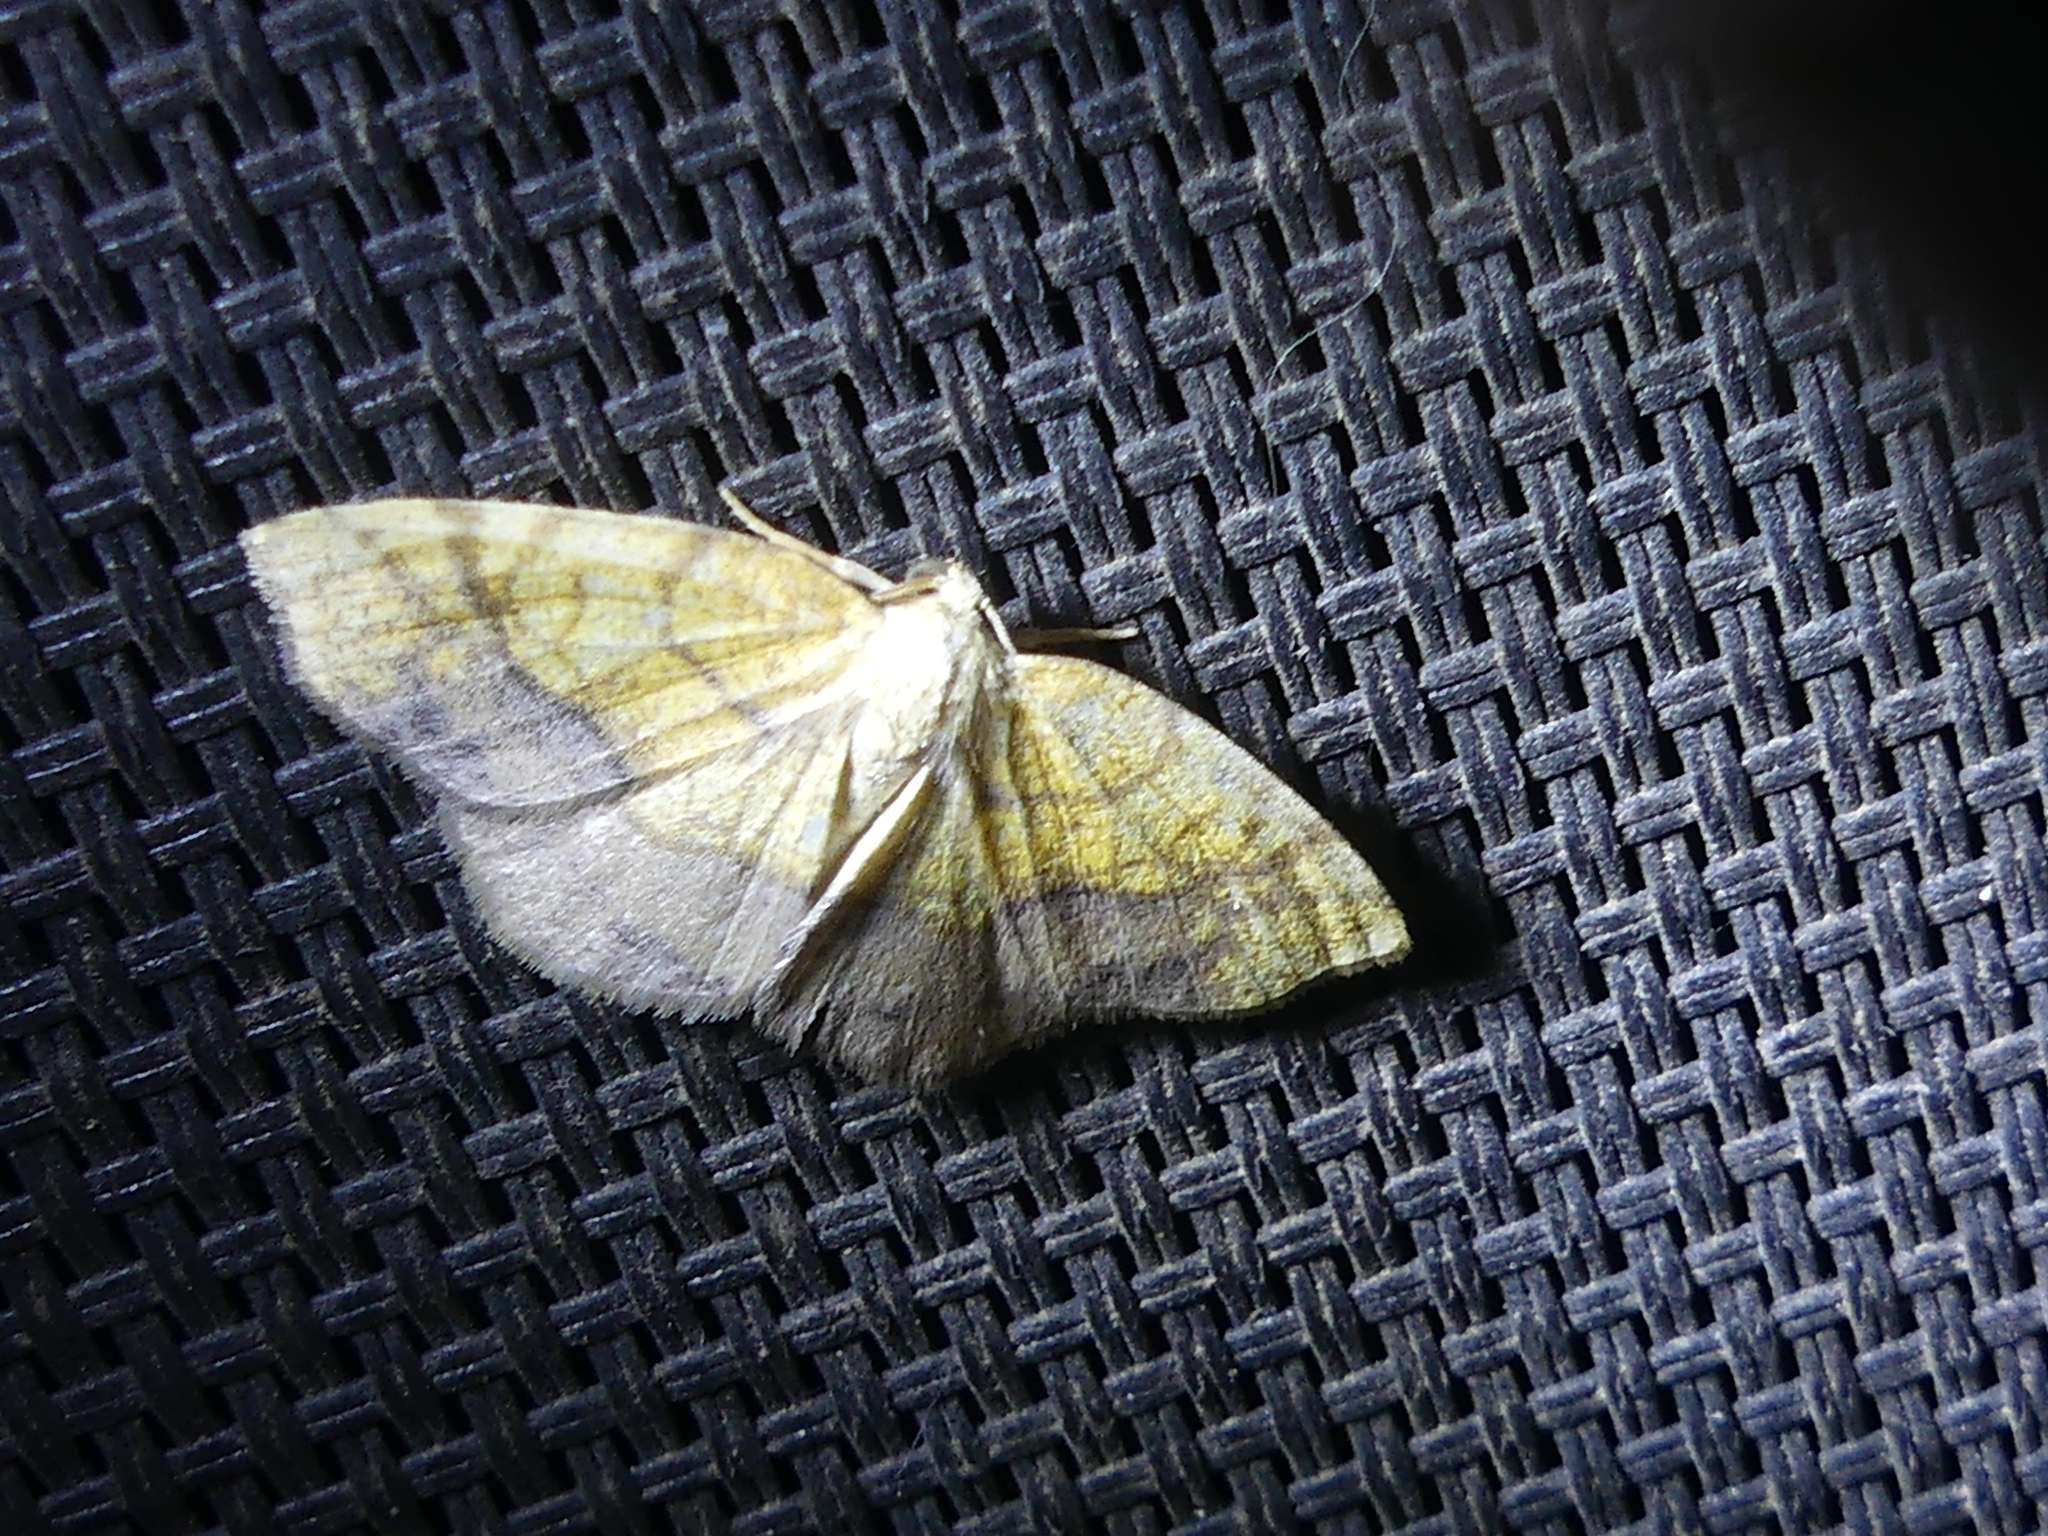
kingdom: Animalia
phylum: Arthropoda
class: Insecta
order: Lepidoptera
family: Geometridae
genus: Nematocampa
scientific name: Nematocampa resistaria
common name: Horned spanworm moth
